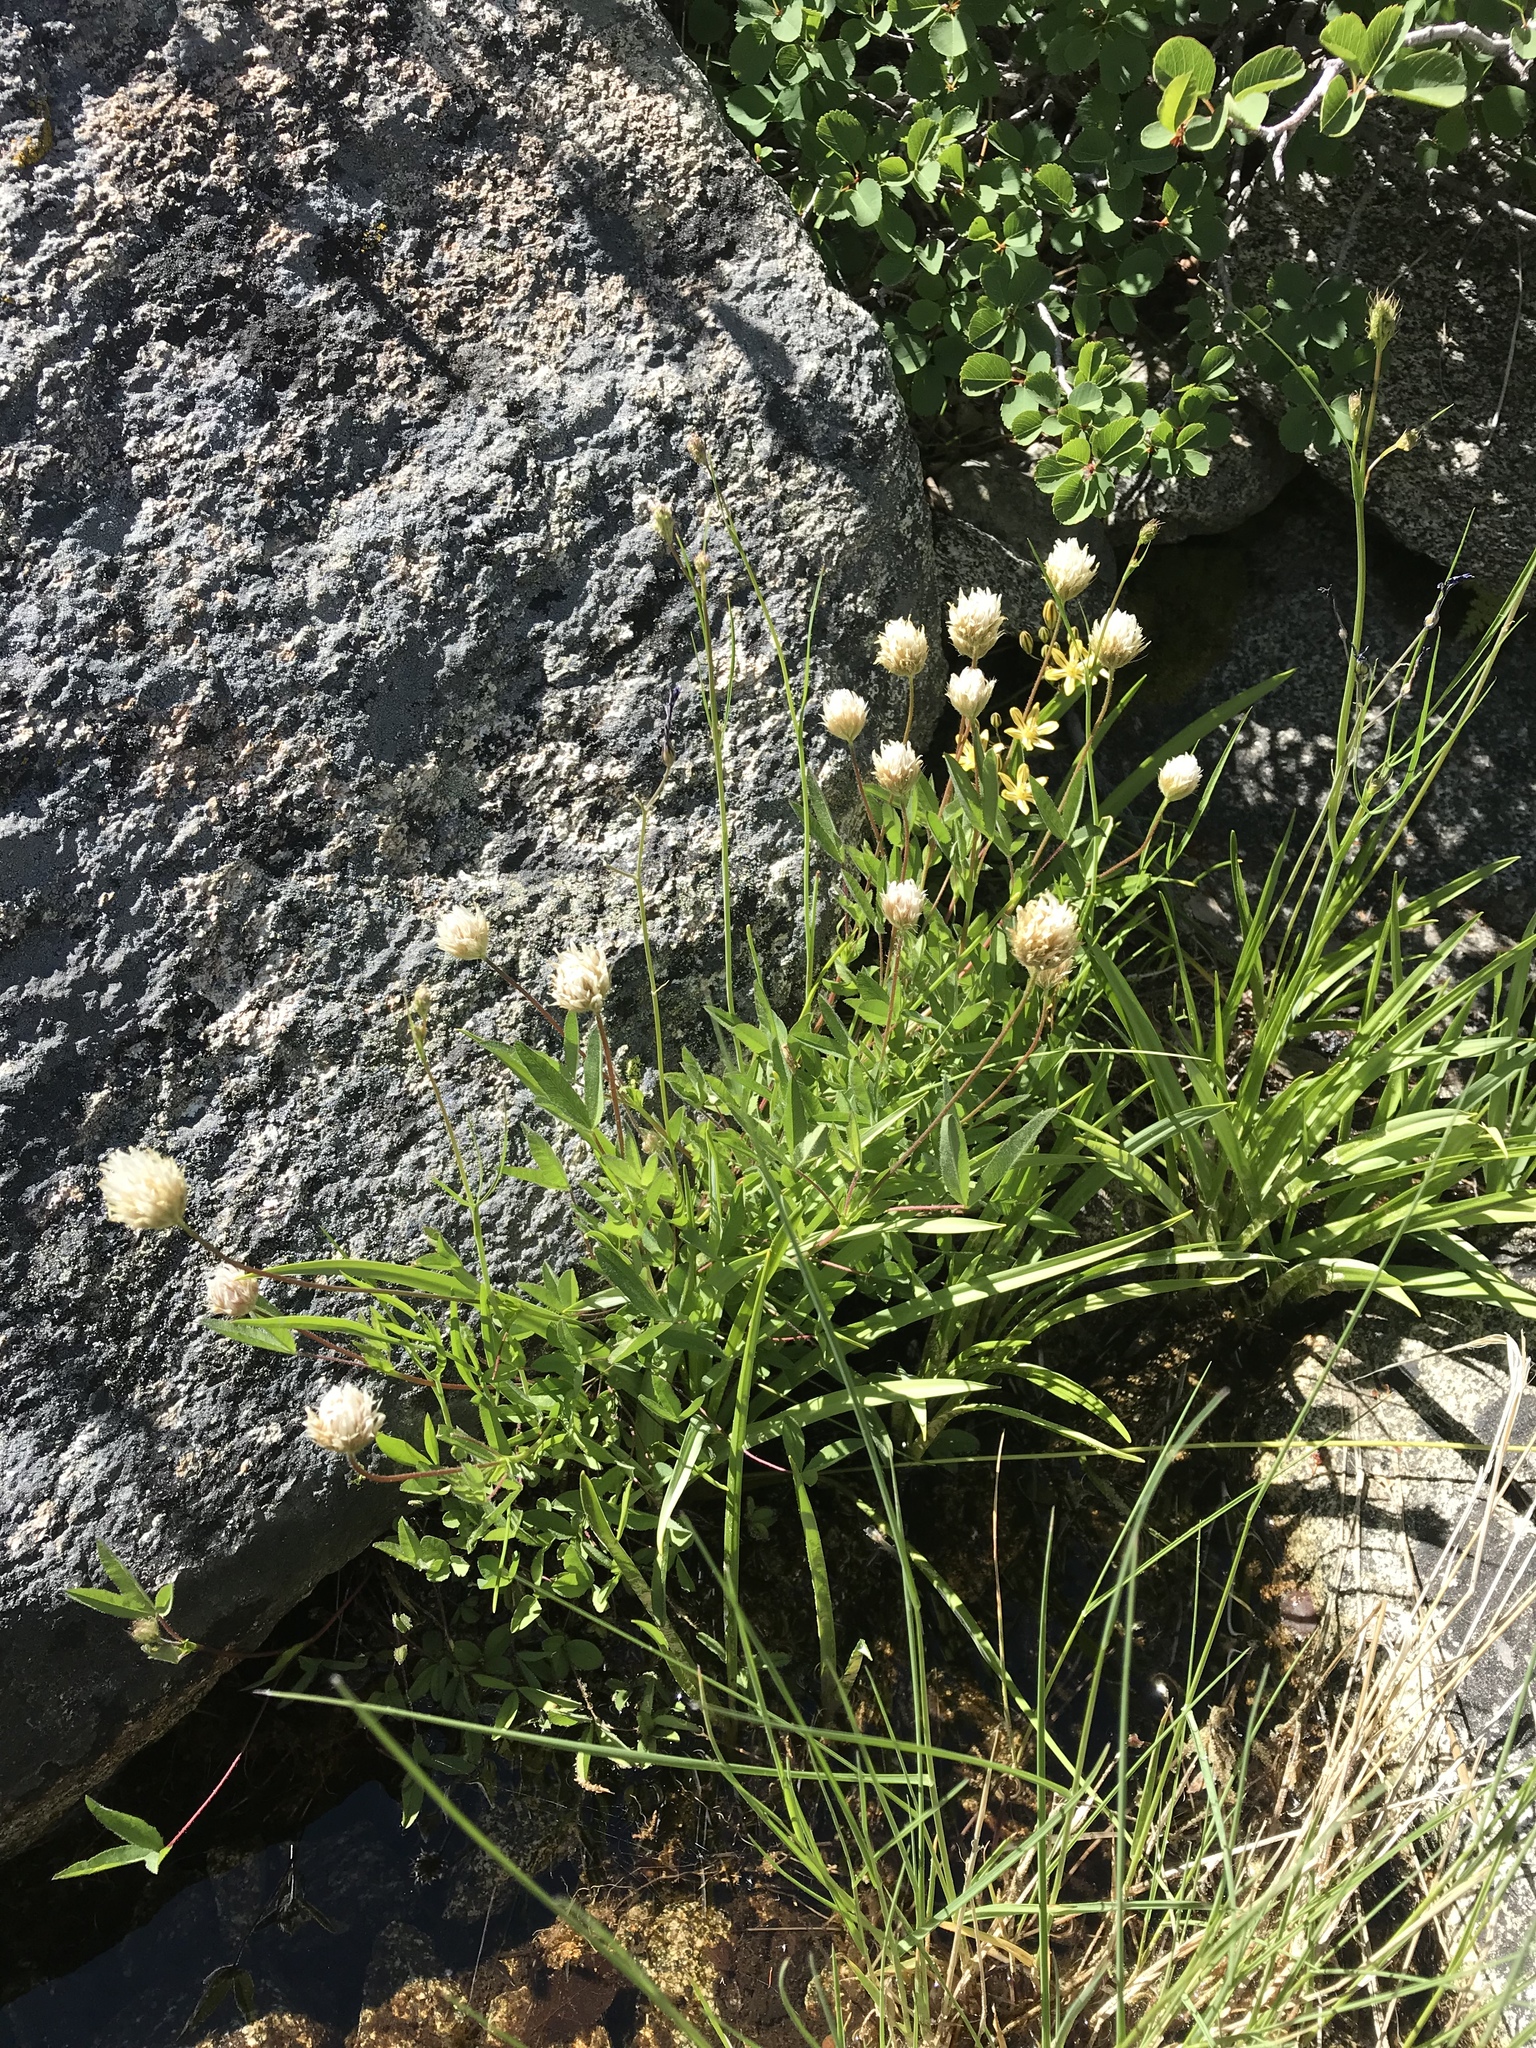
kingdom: Plantae
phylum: Tracheophyta
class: Magnoliopsida
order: Fabales
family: Fabaceae
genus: Trifolium
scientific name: Trifolium longipes
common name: Long-stalk clover
